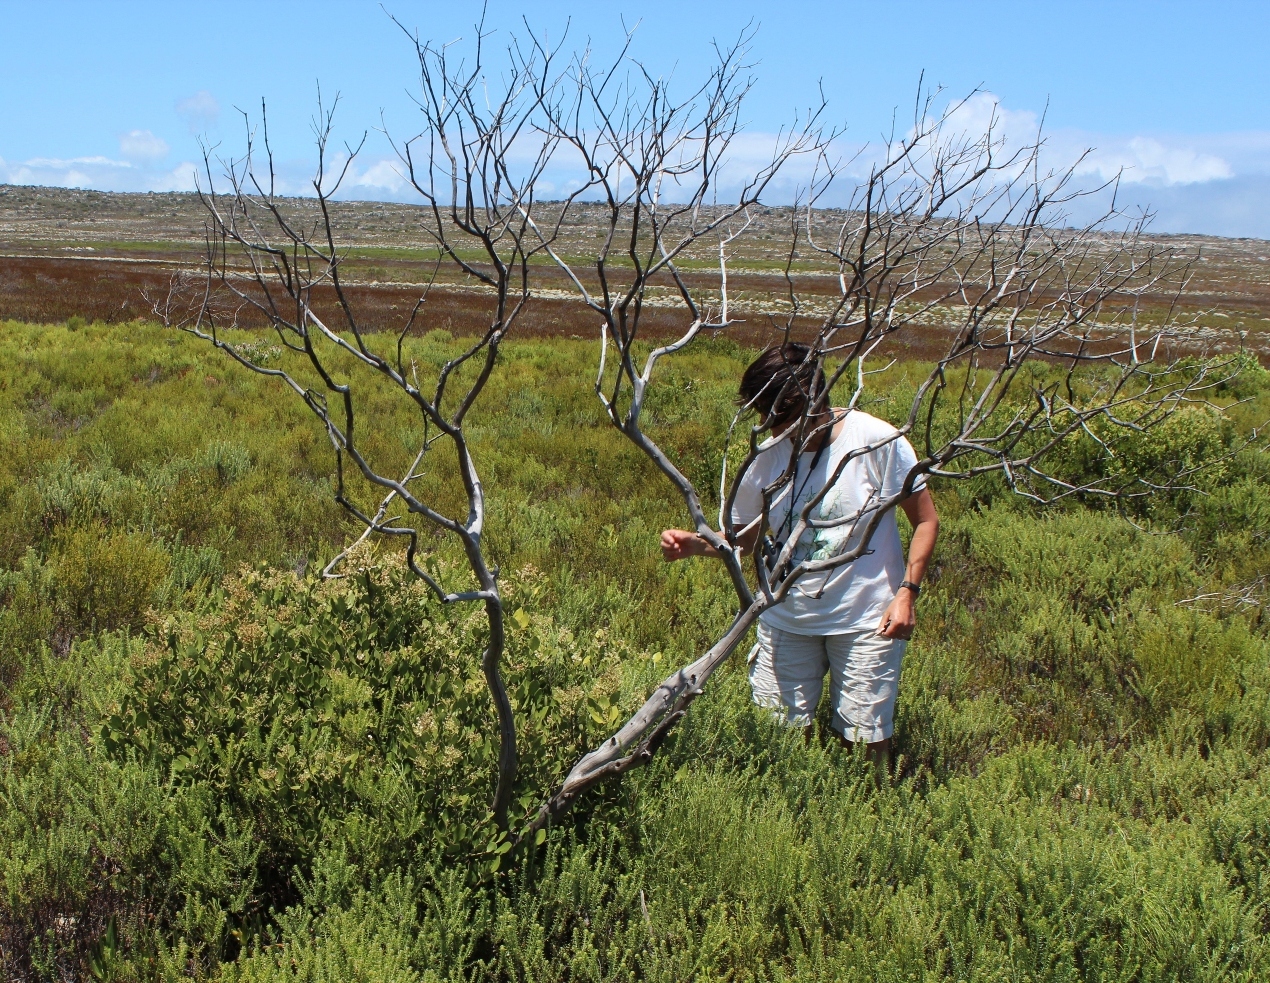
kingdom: Plantae
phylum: Tracheophyta
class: Magnoliopsida
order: Lamiales
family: Oleaceae
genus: Olea
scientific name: Olea capensis
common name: Black ironwood
